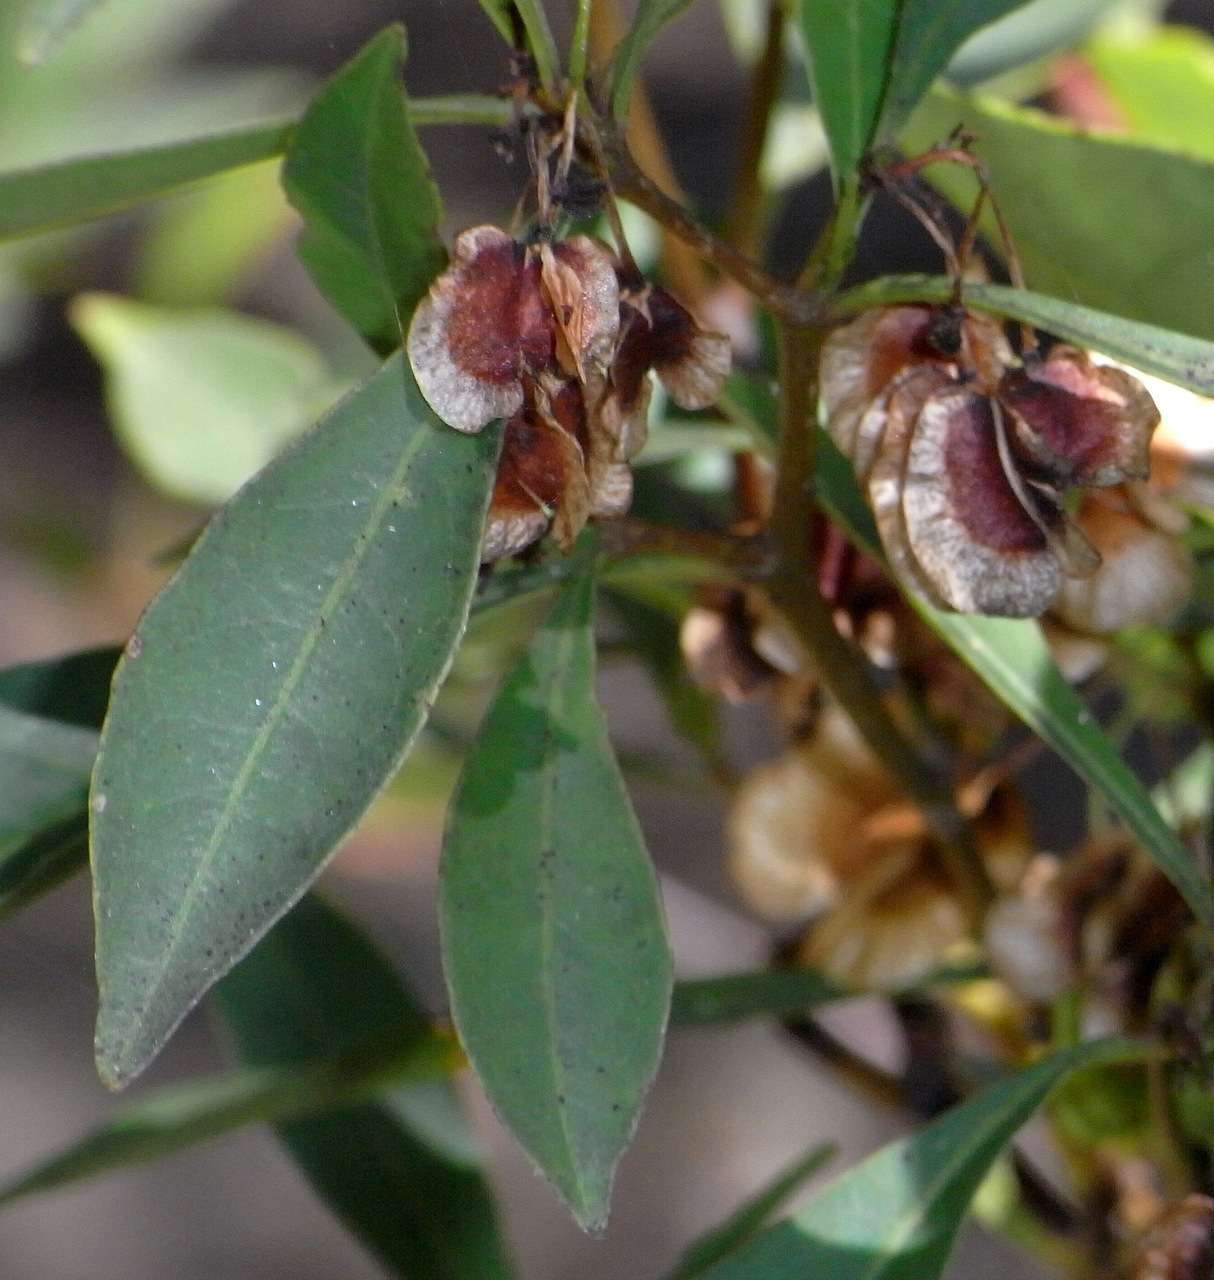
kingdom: Plantae
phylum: Tracheophyta
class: Magnoliopsida
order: Sapindales
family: Sapindaceae
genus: Dodonaea
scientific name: Dodonaea triquetra
